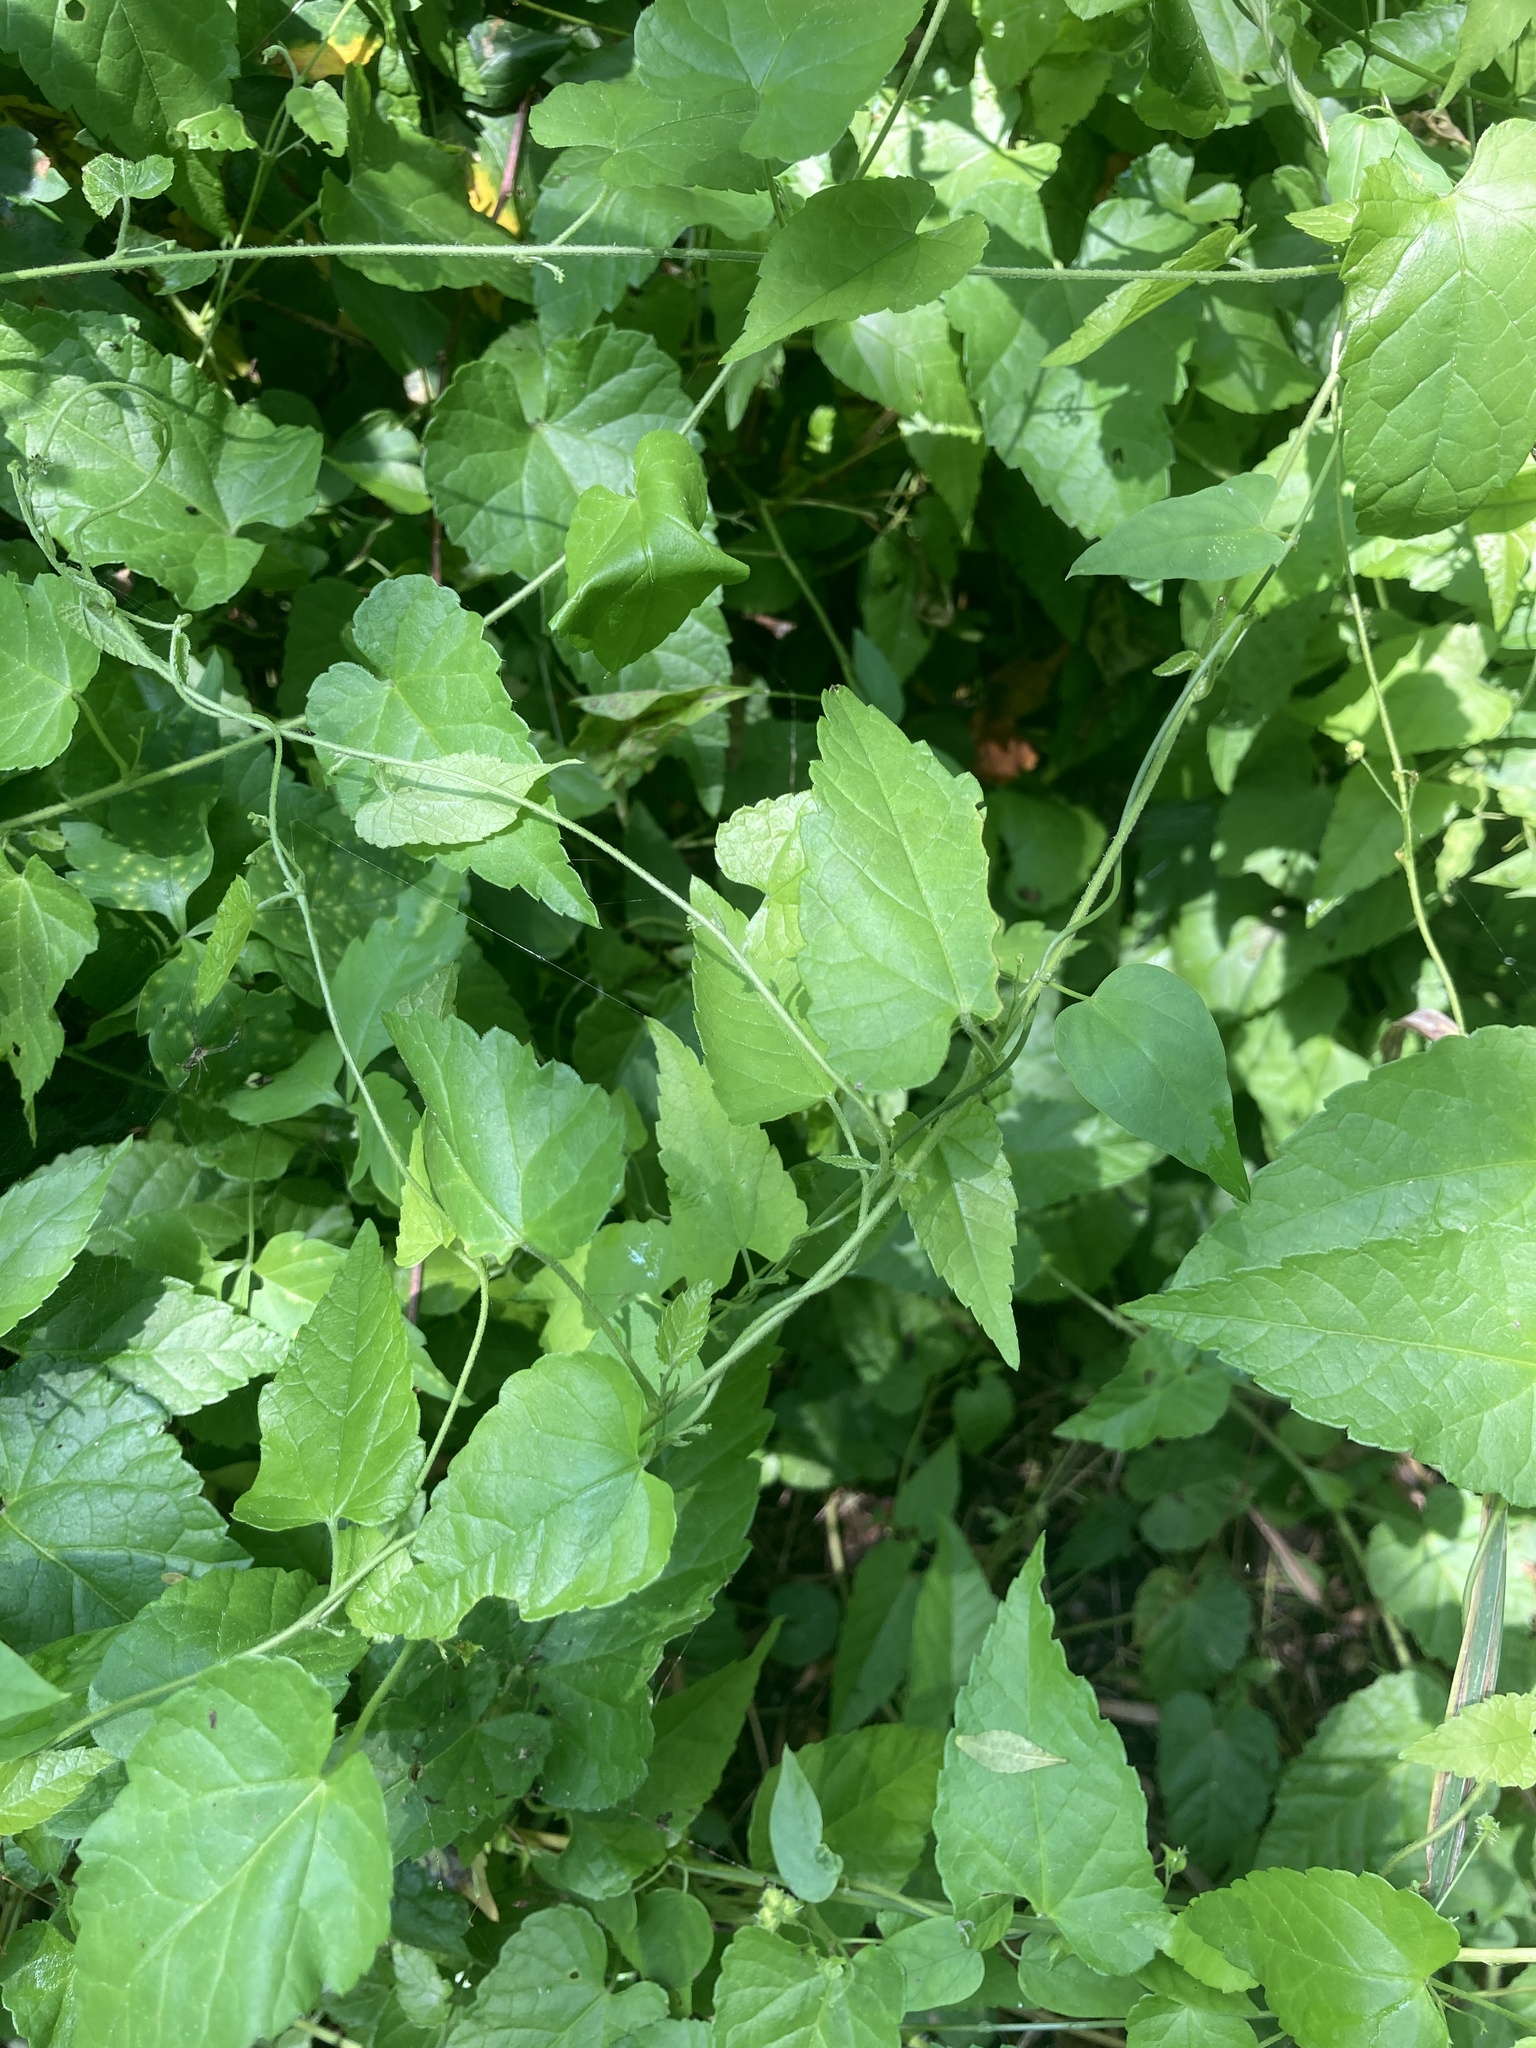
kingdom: Plantae
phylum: Tracheophyta
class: Magnoliopsida
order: Malpighiales
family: Euphorbiaceae
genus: Tragia
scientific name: Tragia volubilis
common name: Twining cow-itch
